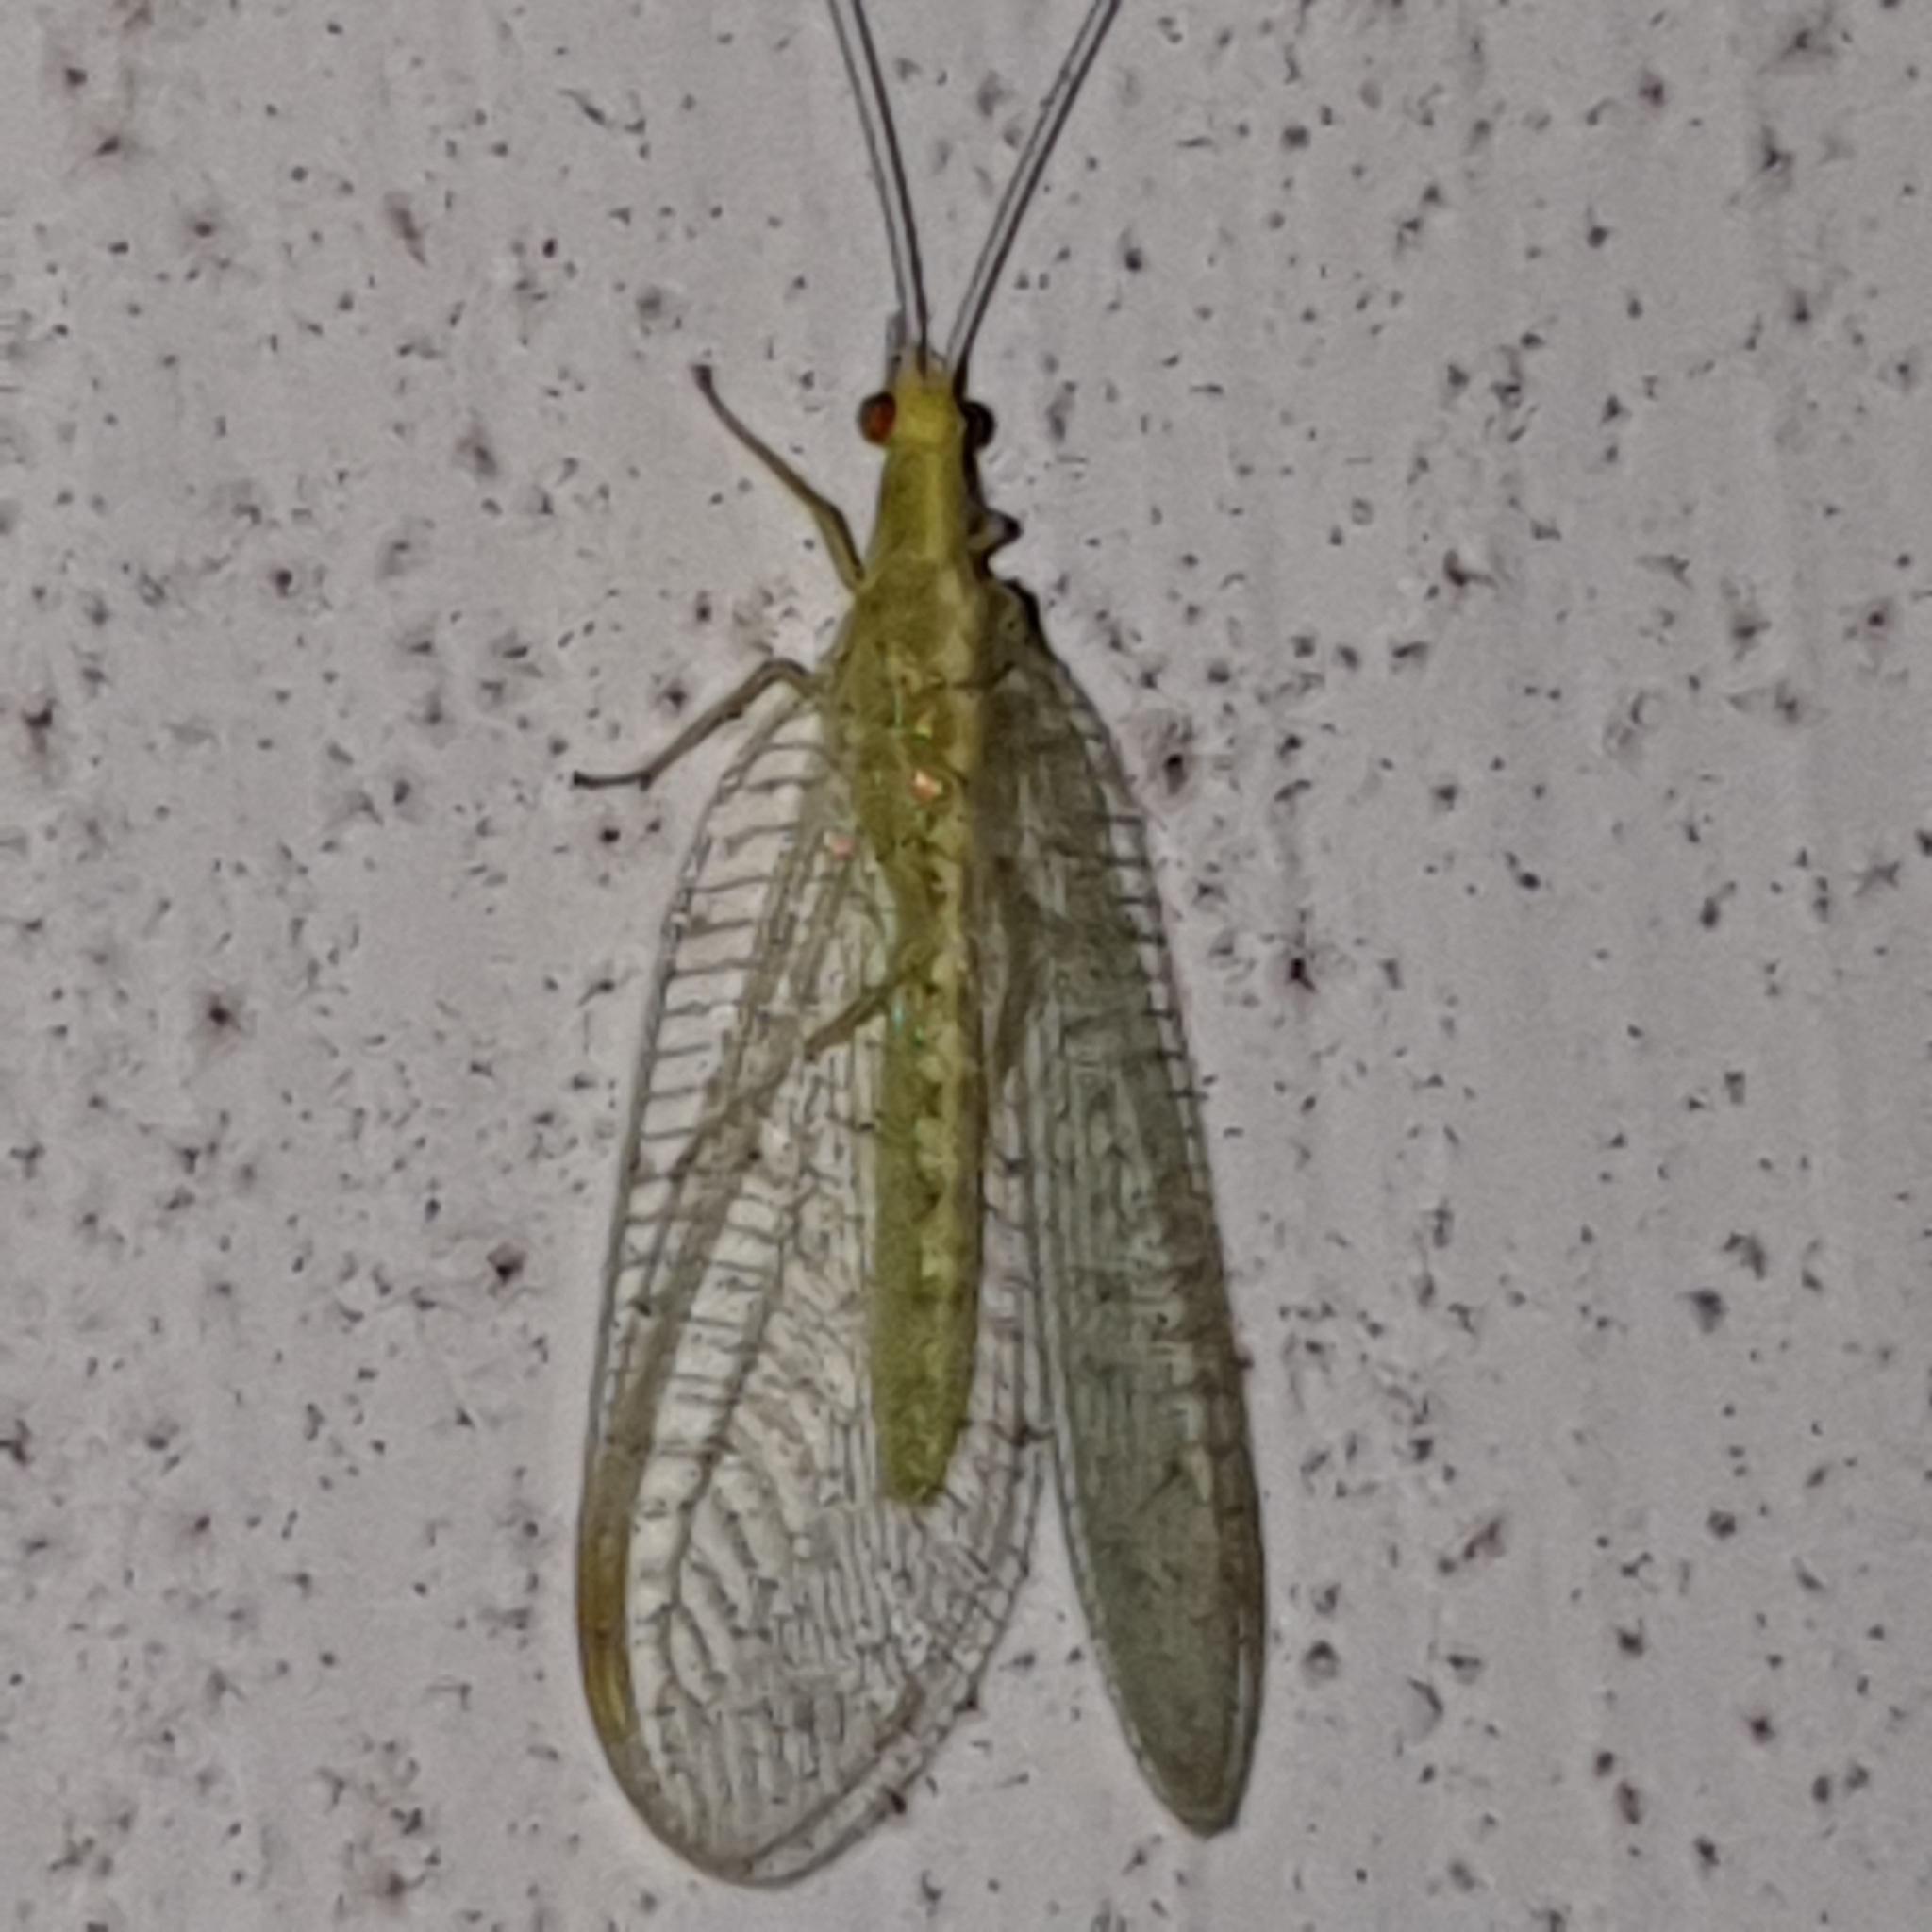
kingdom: Animalia
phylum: Arthropoda
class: Insecta
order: Neuroptera
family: Chrysopidae
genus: Chrysoperla
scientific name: Chrysoperla
